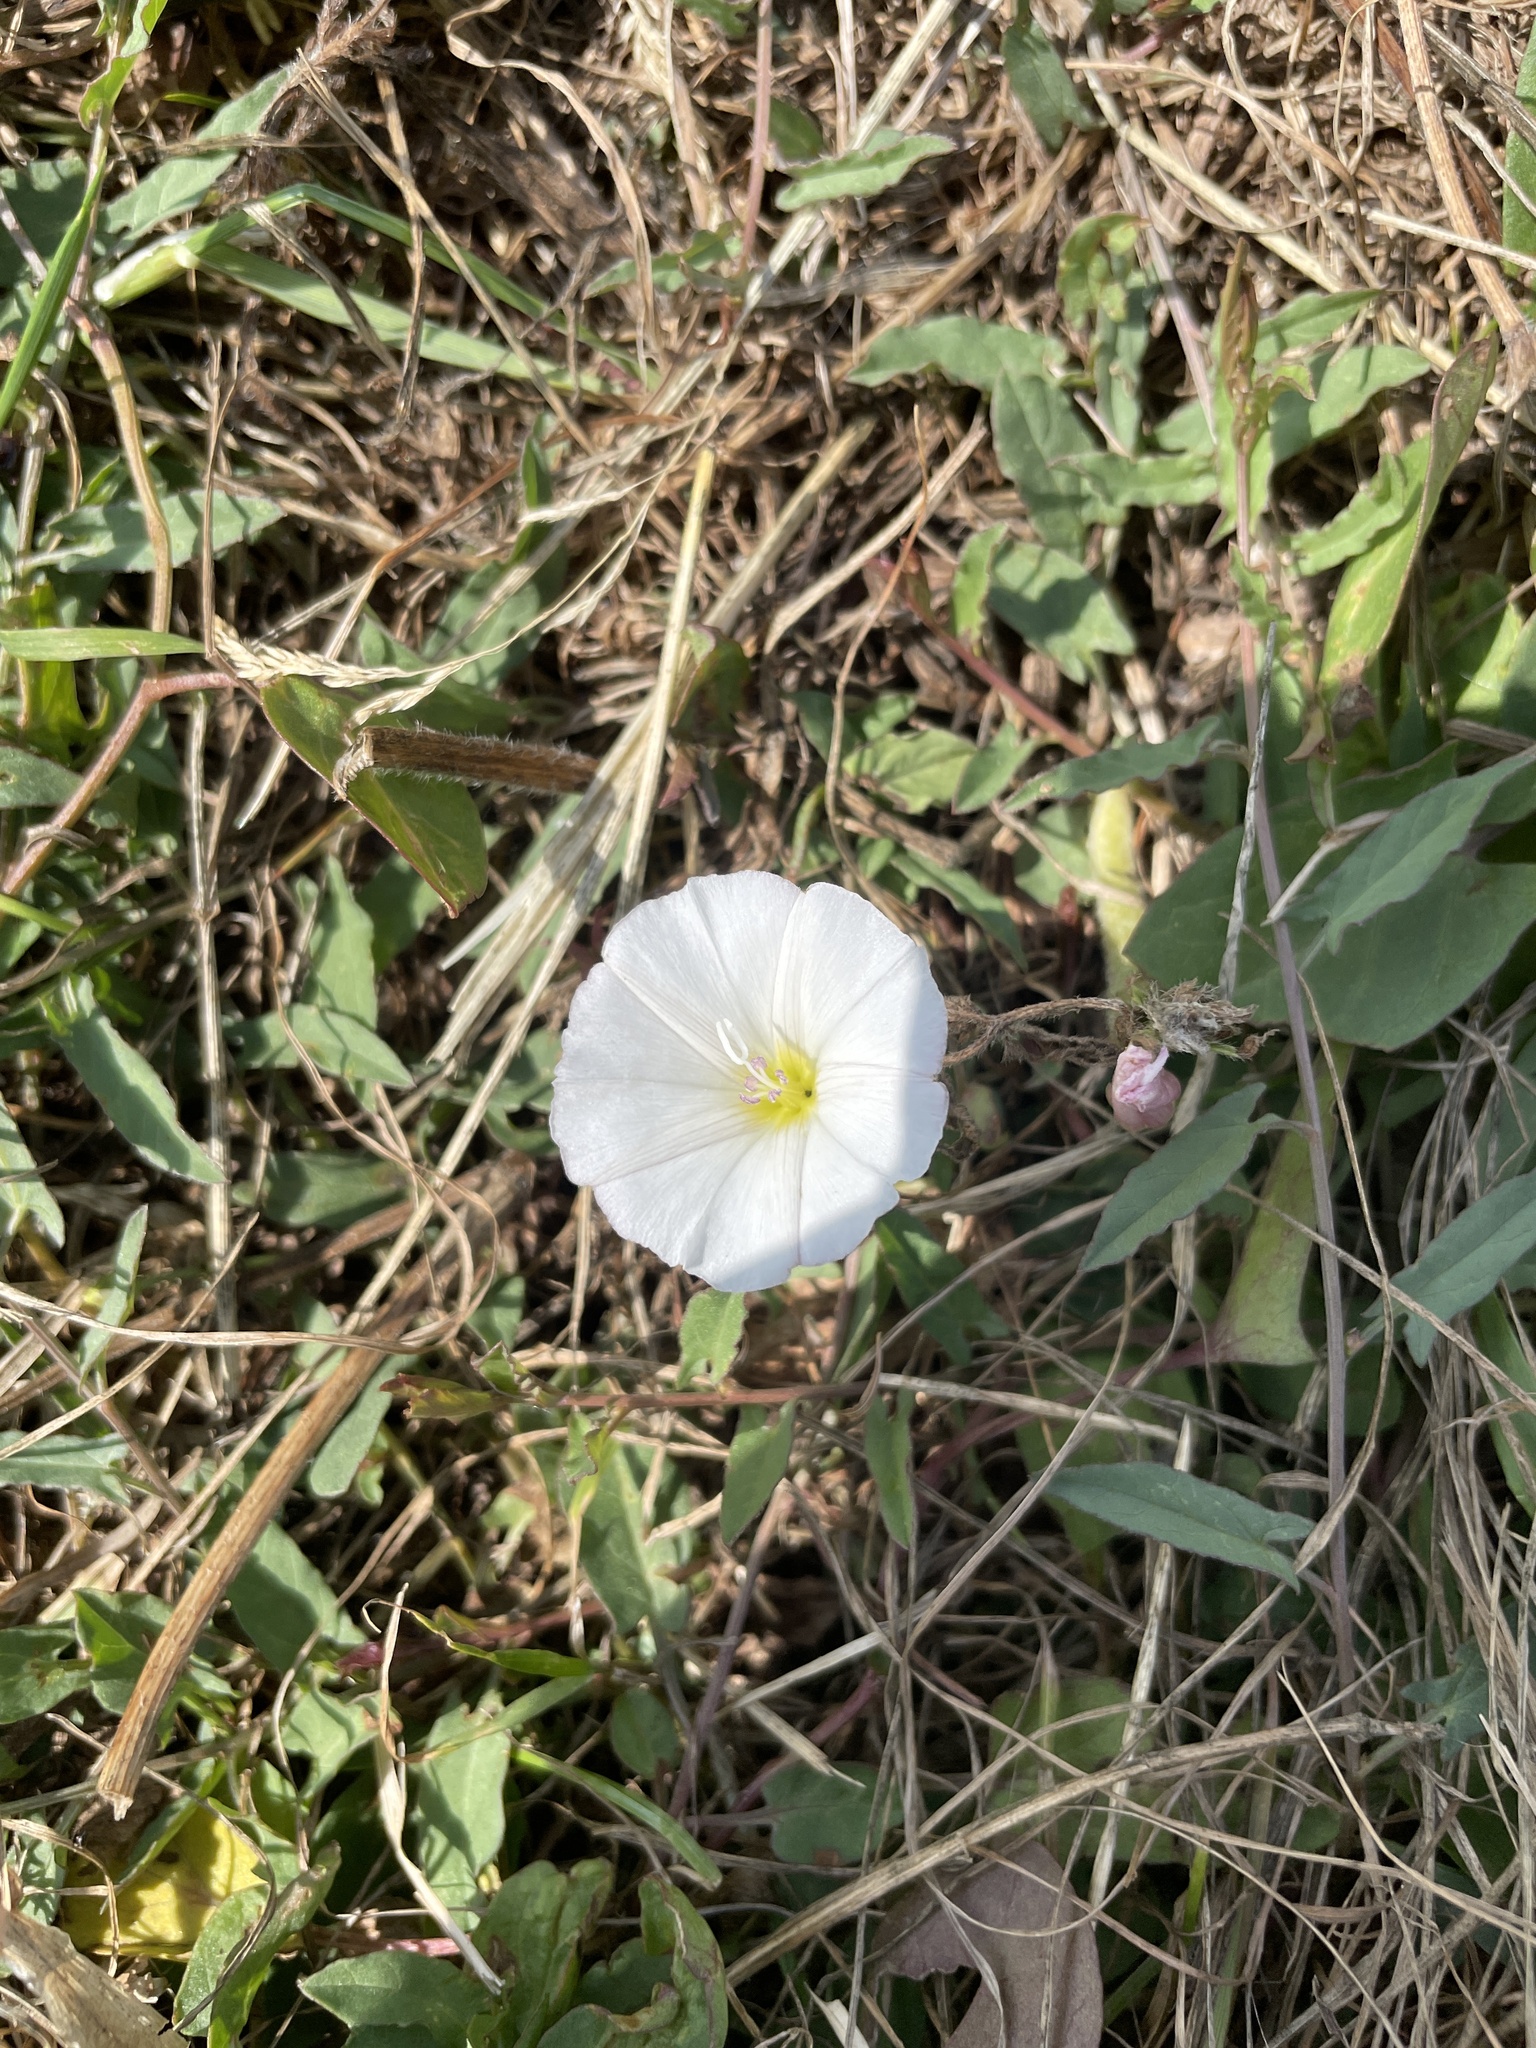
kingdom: Plantae
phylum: Tracheophyta
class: Magnoliopsida
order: Solanales
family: Convolvulaceae
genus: Convolvulus
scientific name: Convolvulus arvensis
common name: Field bindweed
